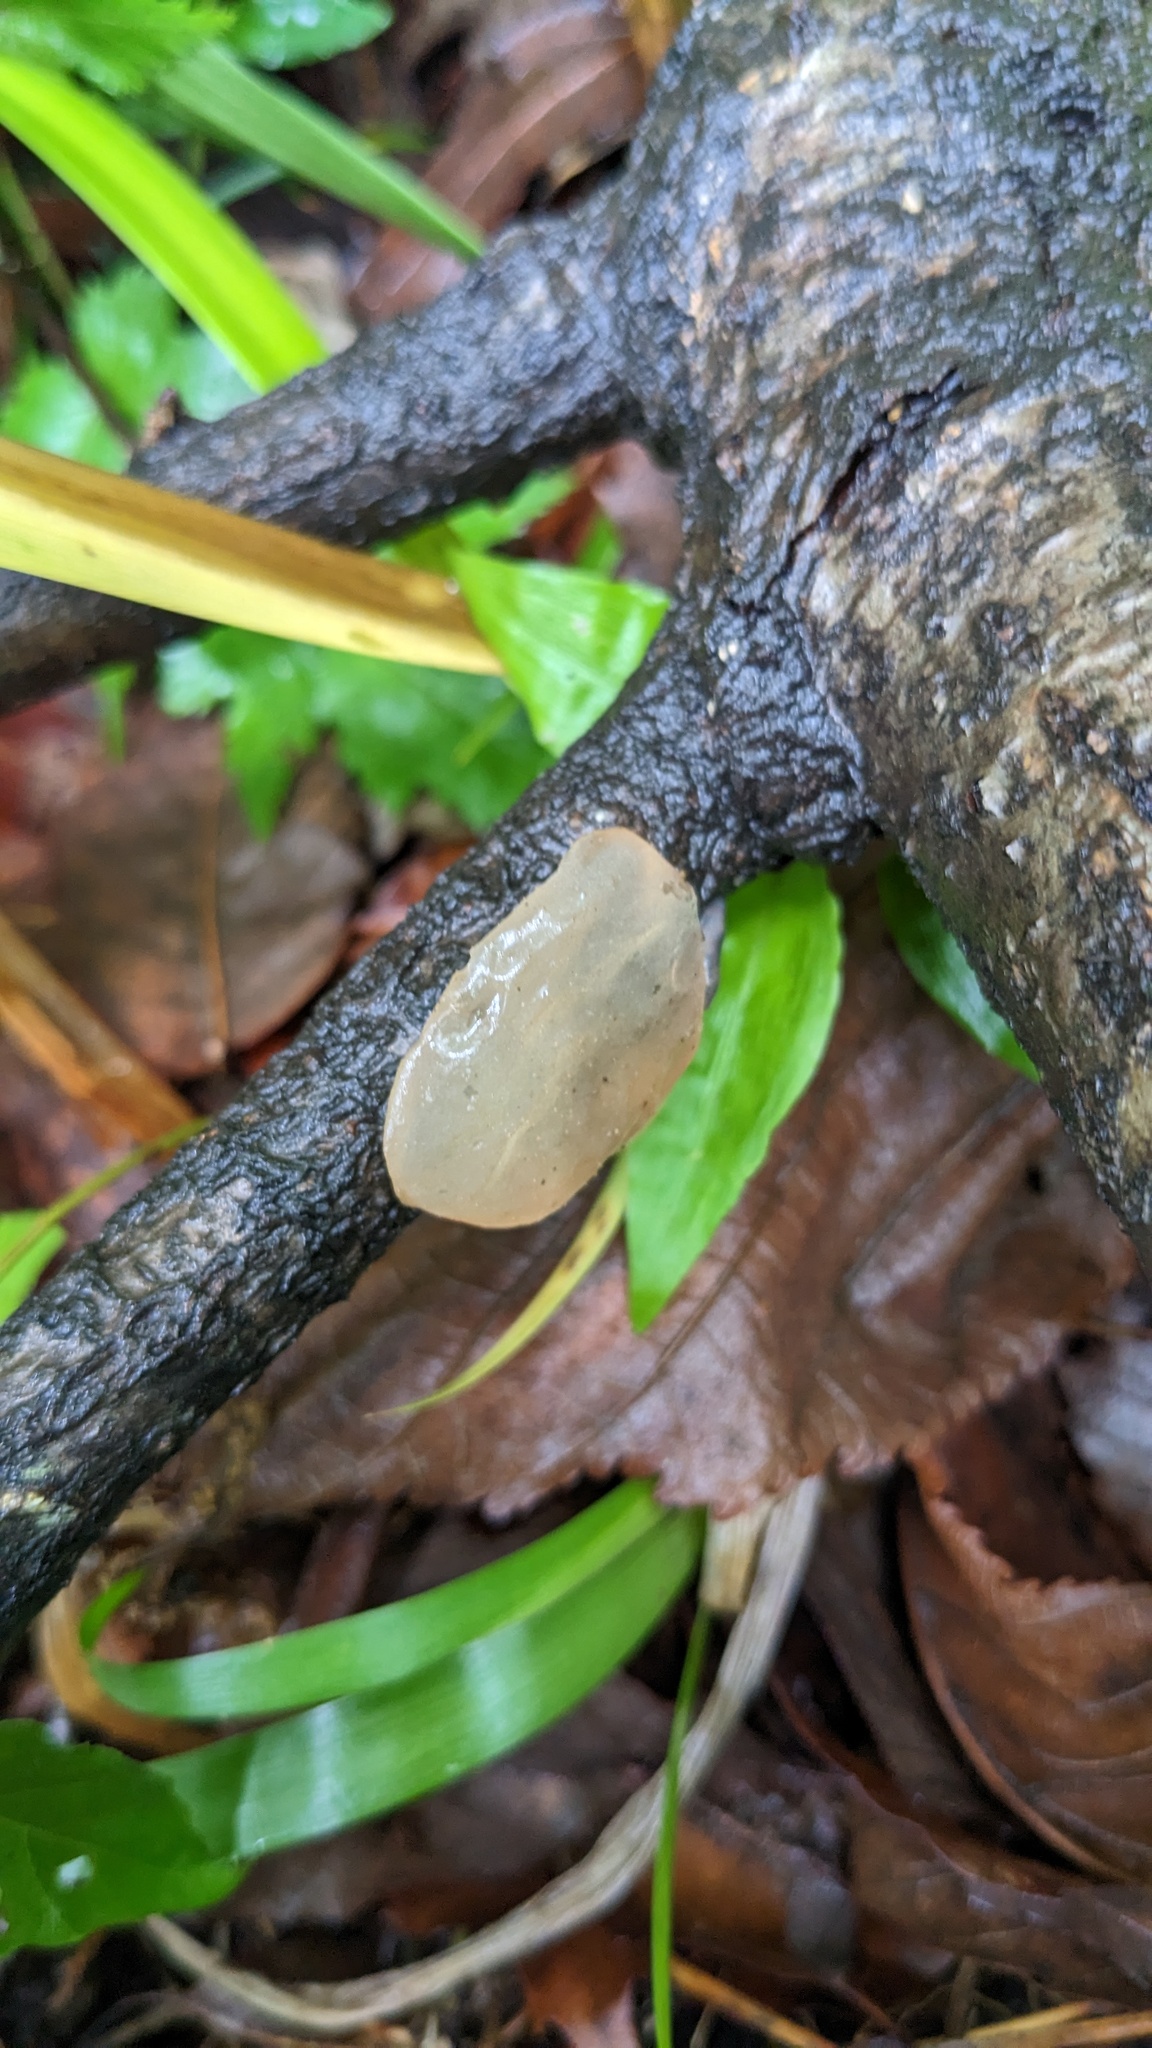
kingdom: Fungi
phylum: Basidiomycota
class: Agaricomycetes
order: Auriculariales
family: Auriculariaceae
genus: Exidia
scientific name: Exidia uvapassa
